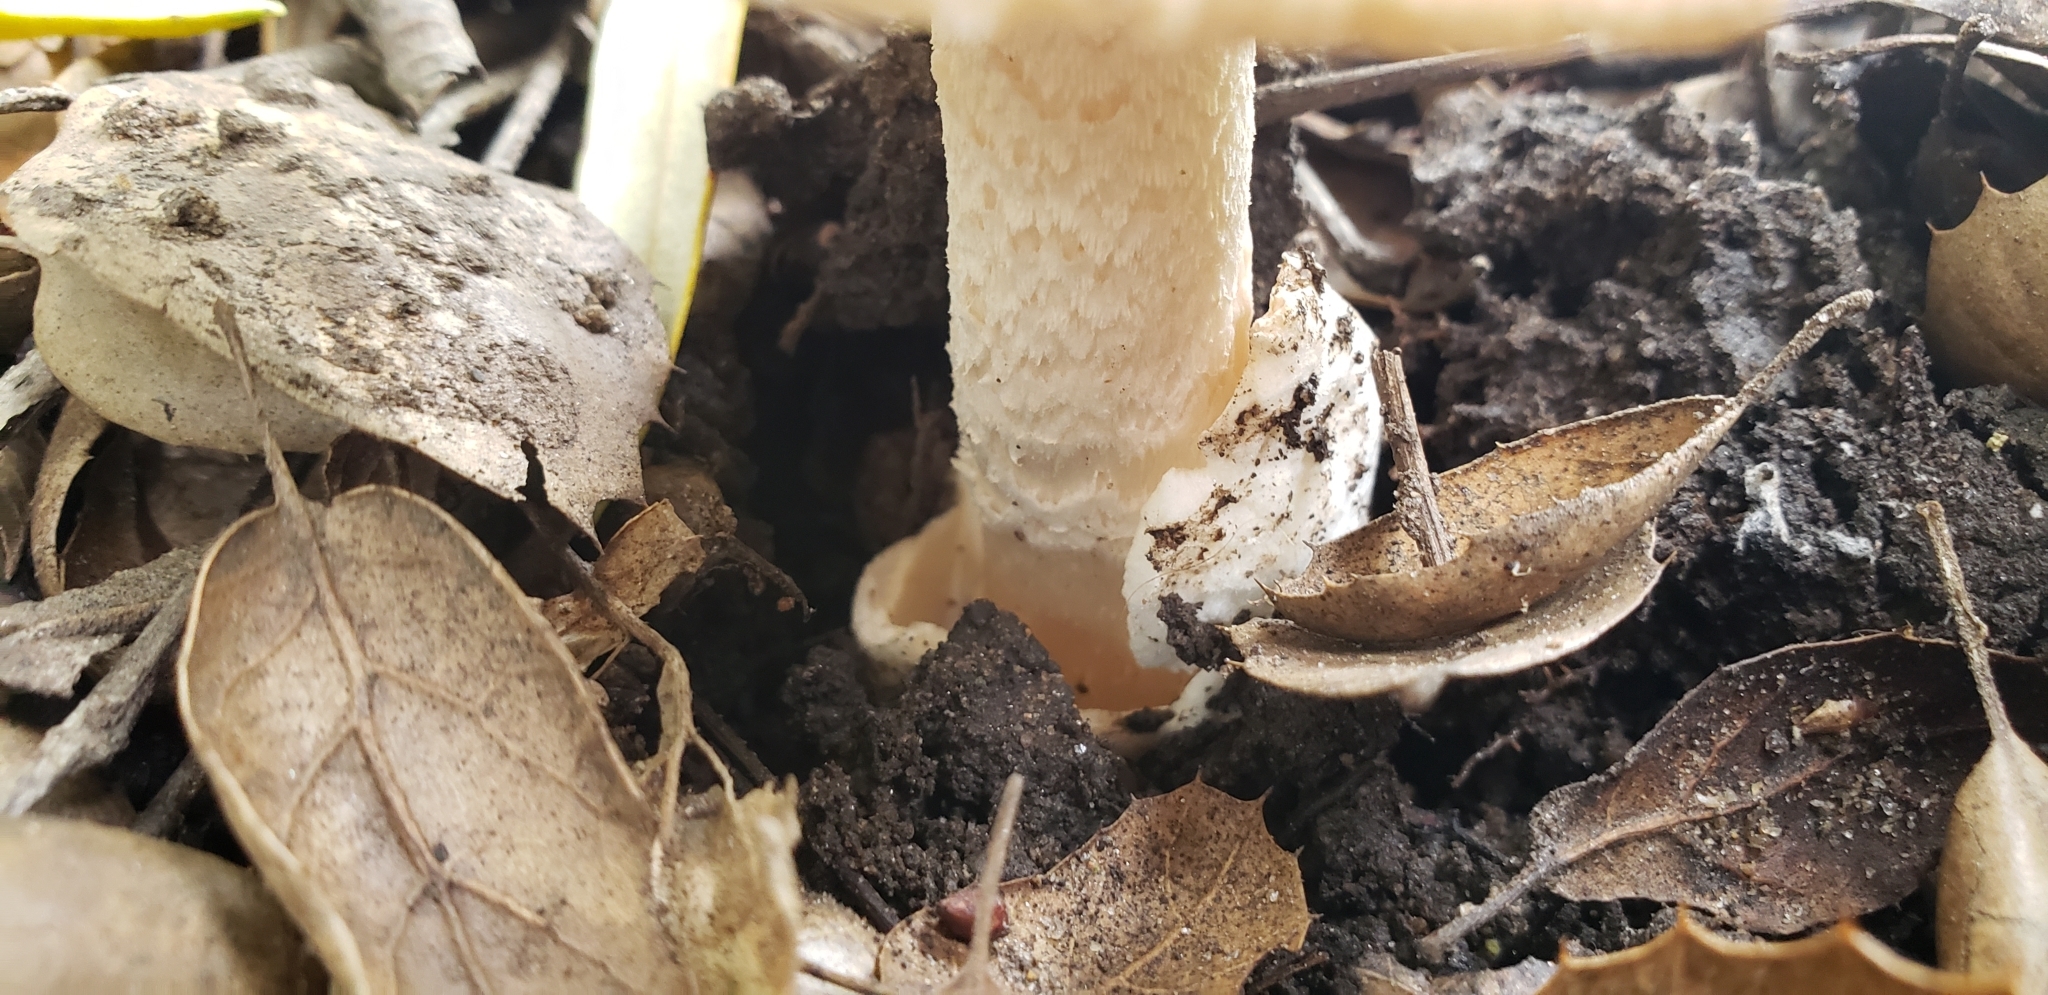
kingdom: Fungi
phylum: Basidiomycota
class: Agaricomycetes
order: Agaricales
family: Amanitaceae
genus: Amanita
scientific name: Amanita velosa
